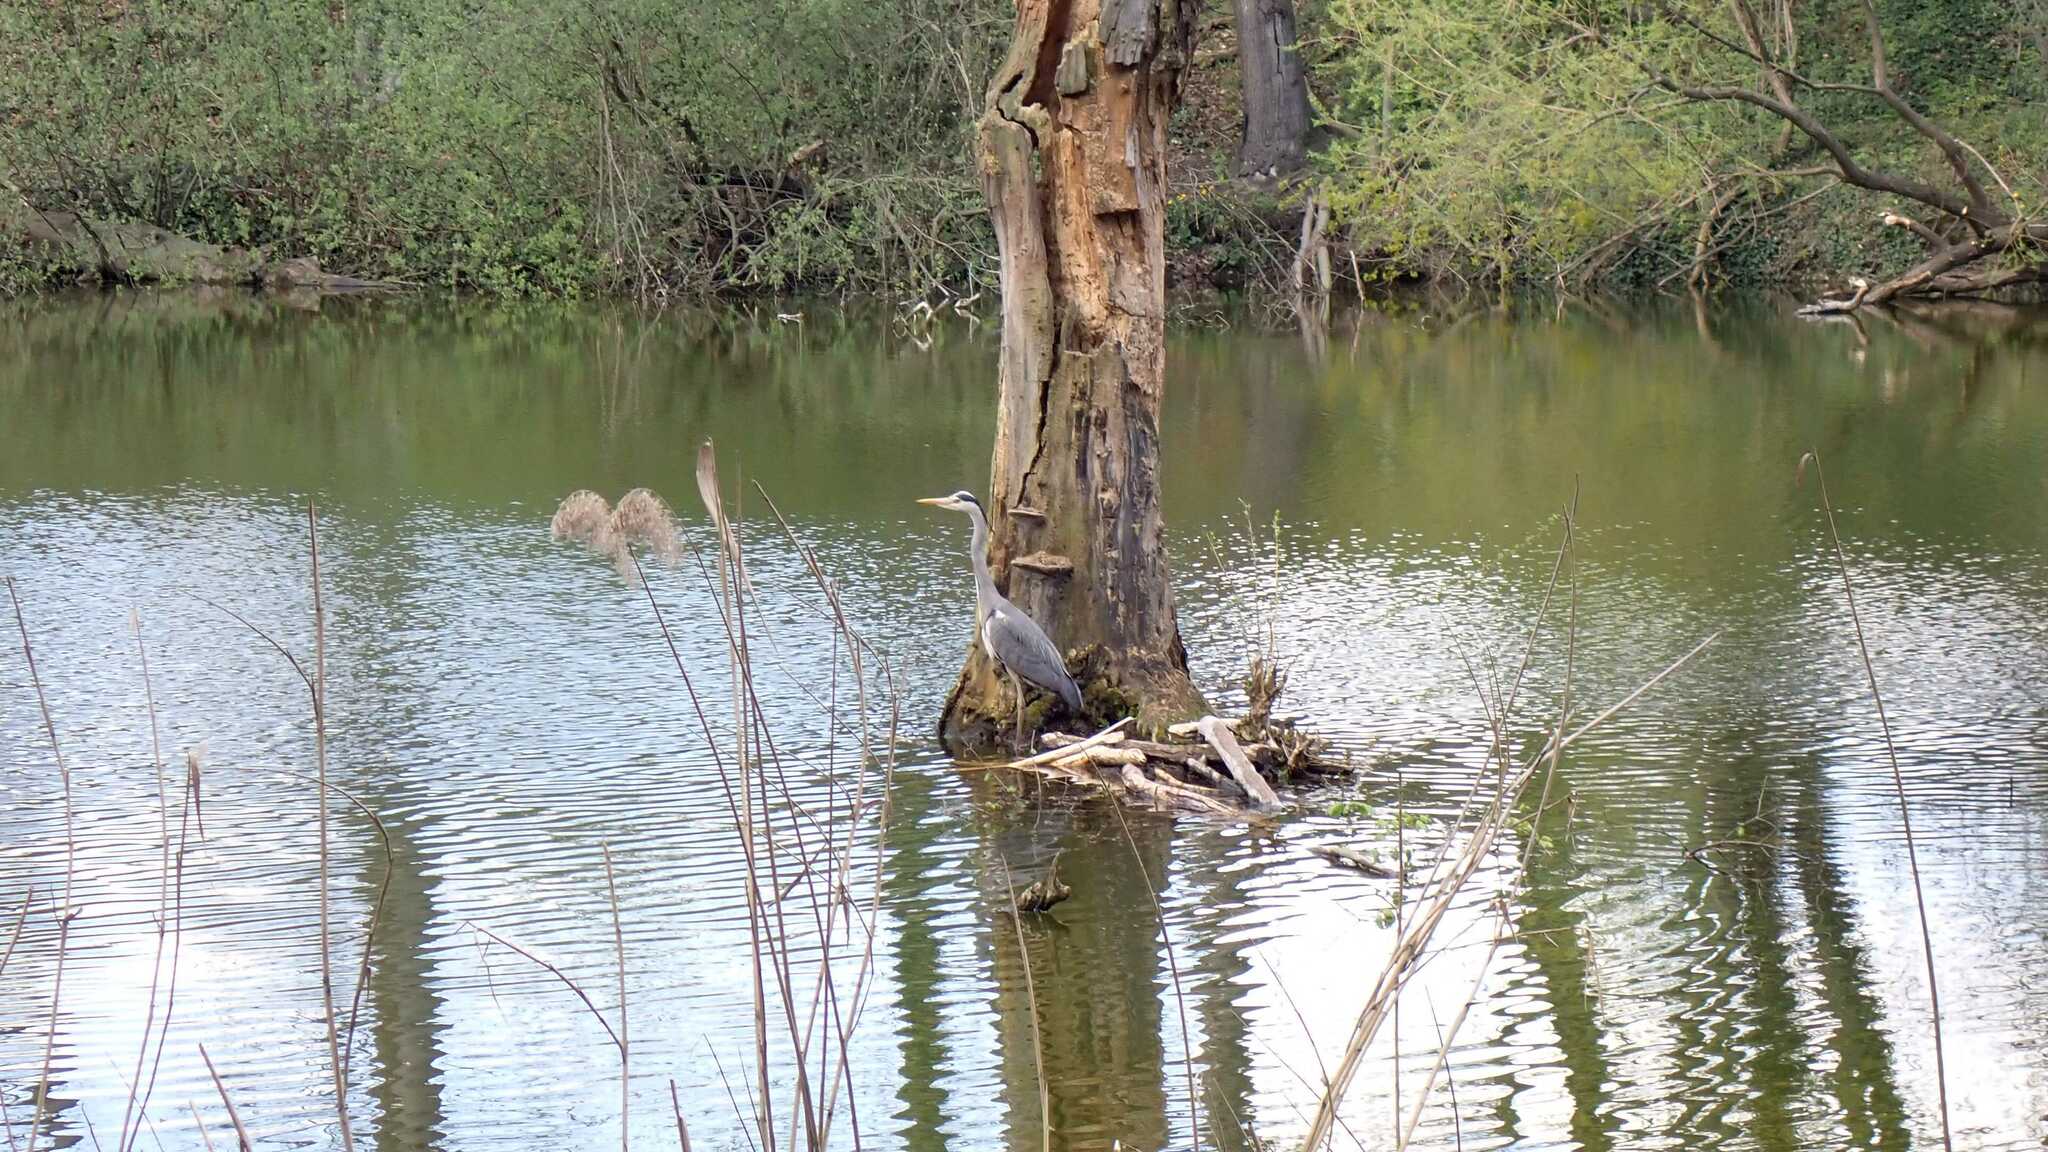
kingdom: Animalia
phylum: Chordata
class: Aves
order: Pelecaniformes
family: Ardeidae
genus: Ardea
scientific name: Ardea cinerea
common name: Grey heron
